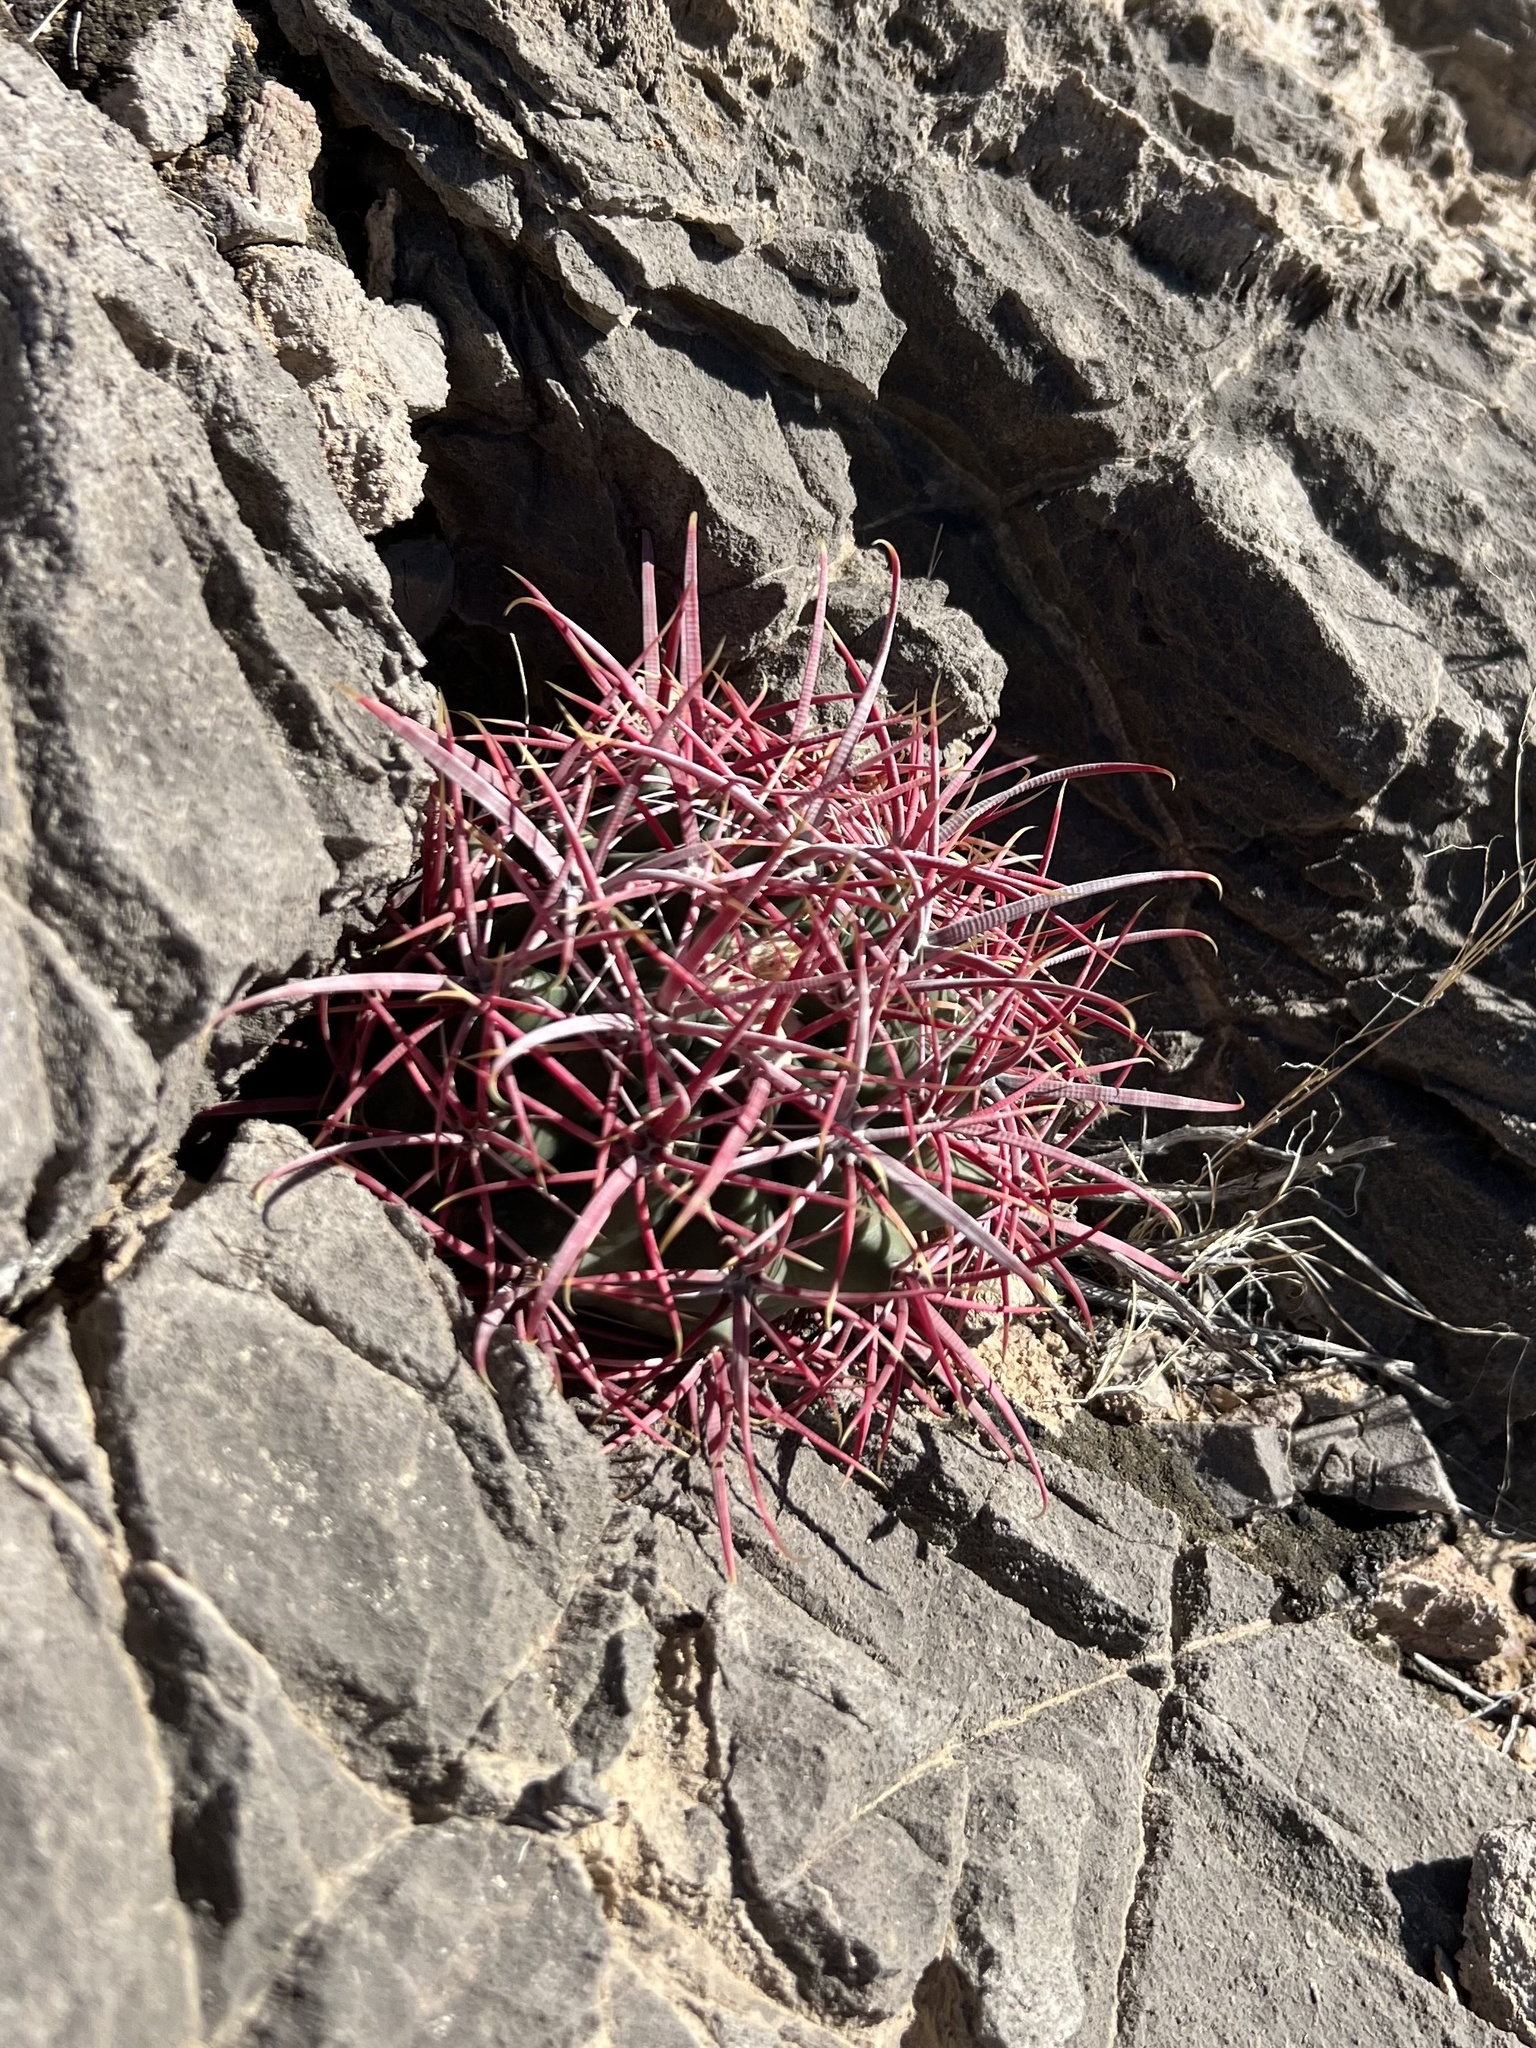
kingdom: Plantae
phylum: Tracheophyta
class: Magnoliopsida
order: Caryophyllales
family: Cactaceae
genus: Ferocactus
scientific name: Ferocactus cylindraceus
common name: California barrel cactus
